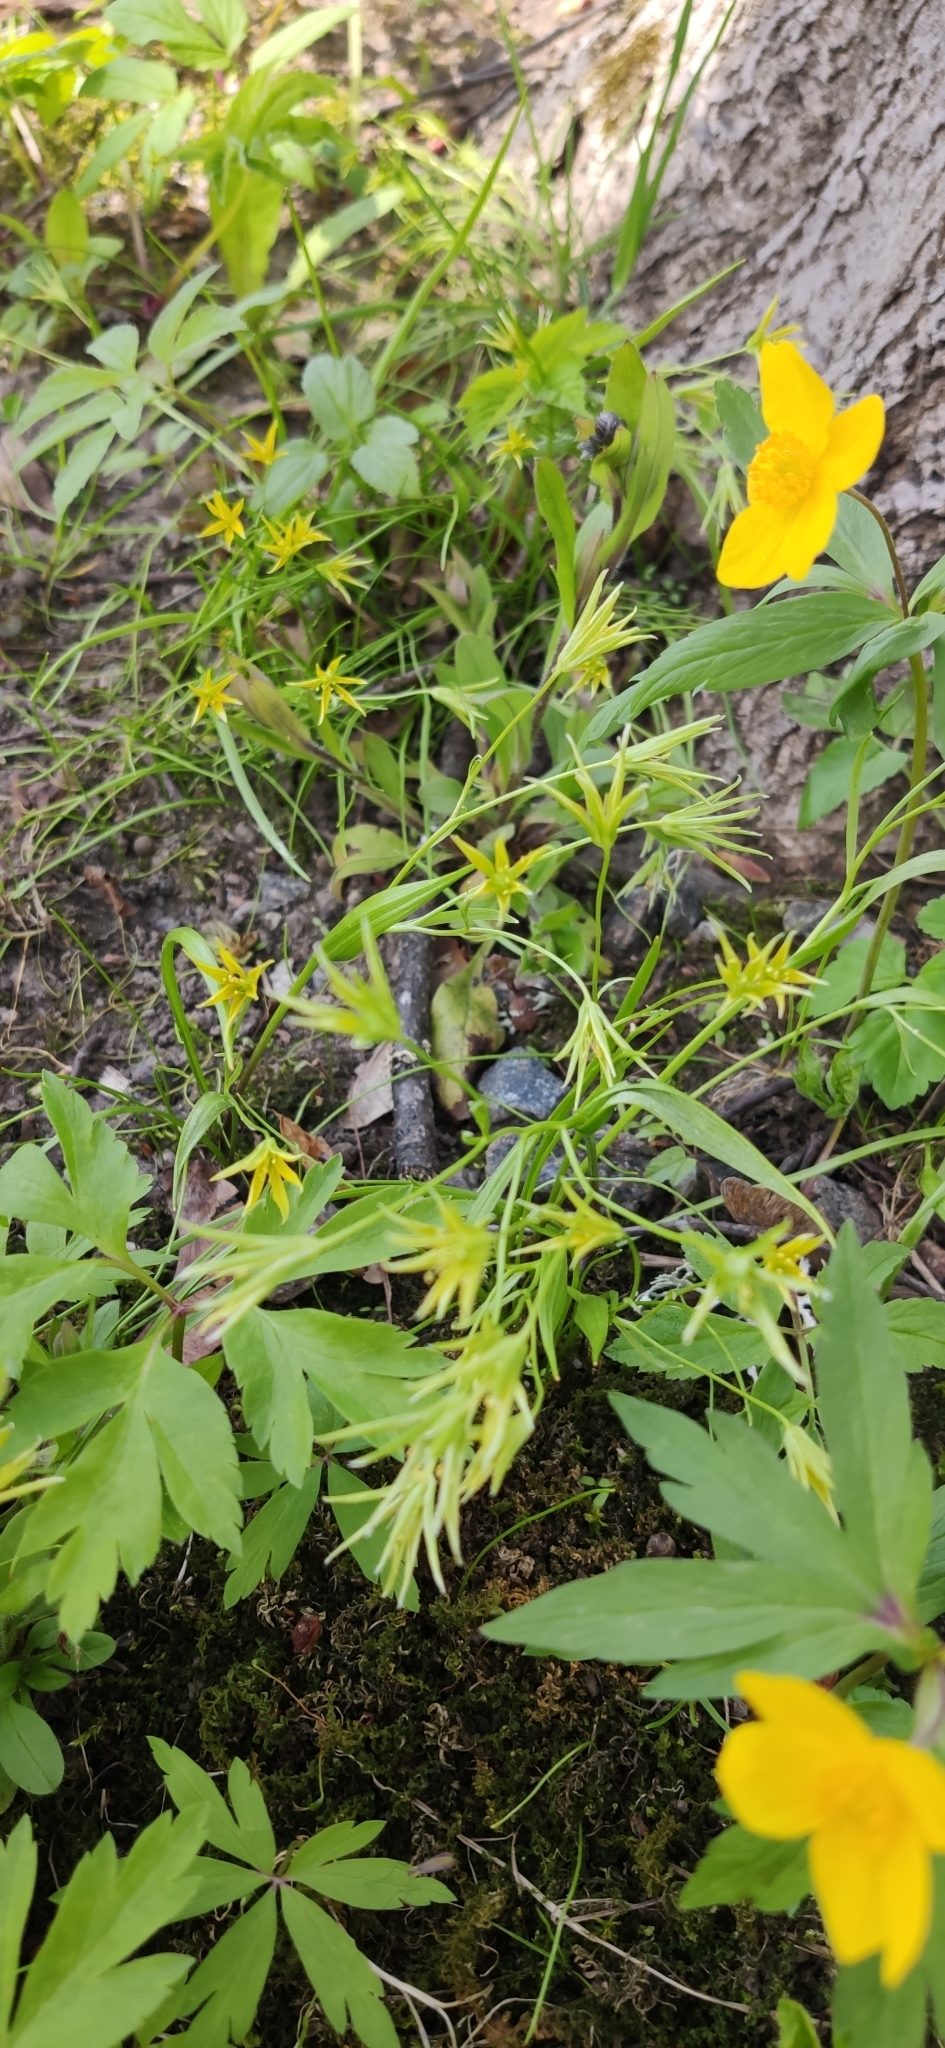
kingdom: Plantae
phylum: Tracheophyta
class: Liliopsida
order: Liliales
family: Liliaceae
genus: Gagea
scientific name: Gagea minima
